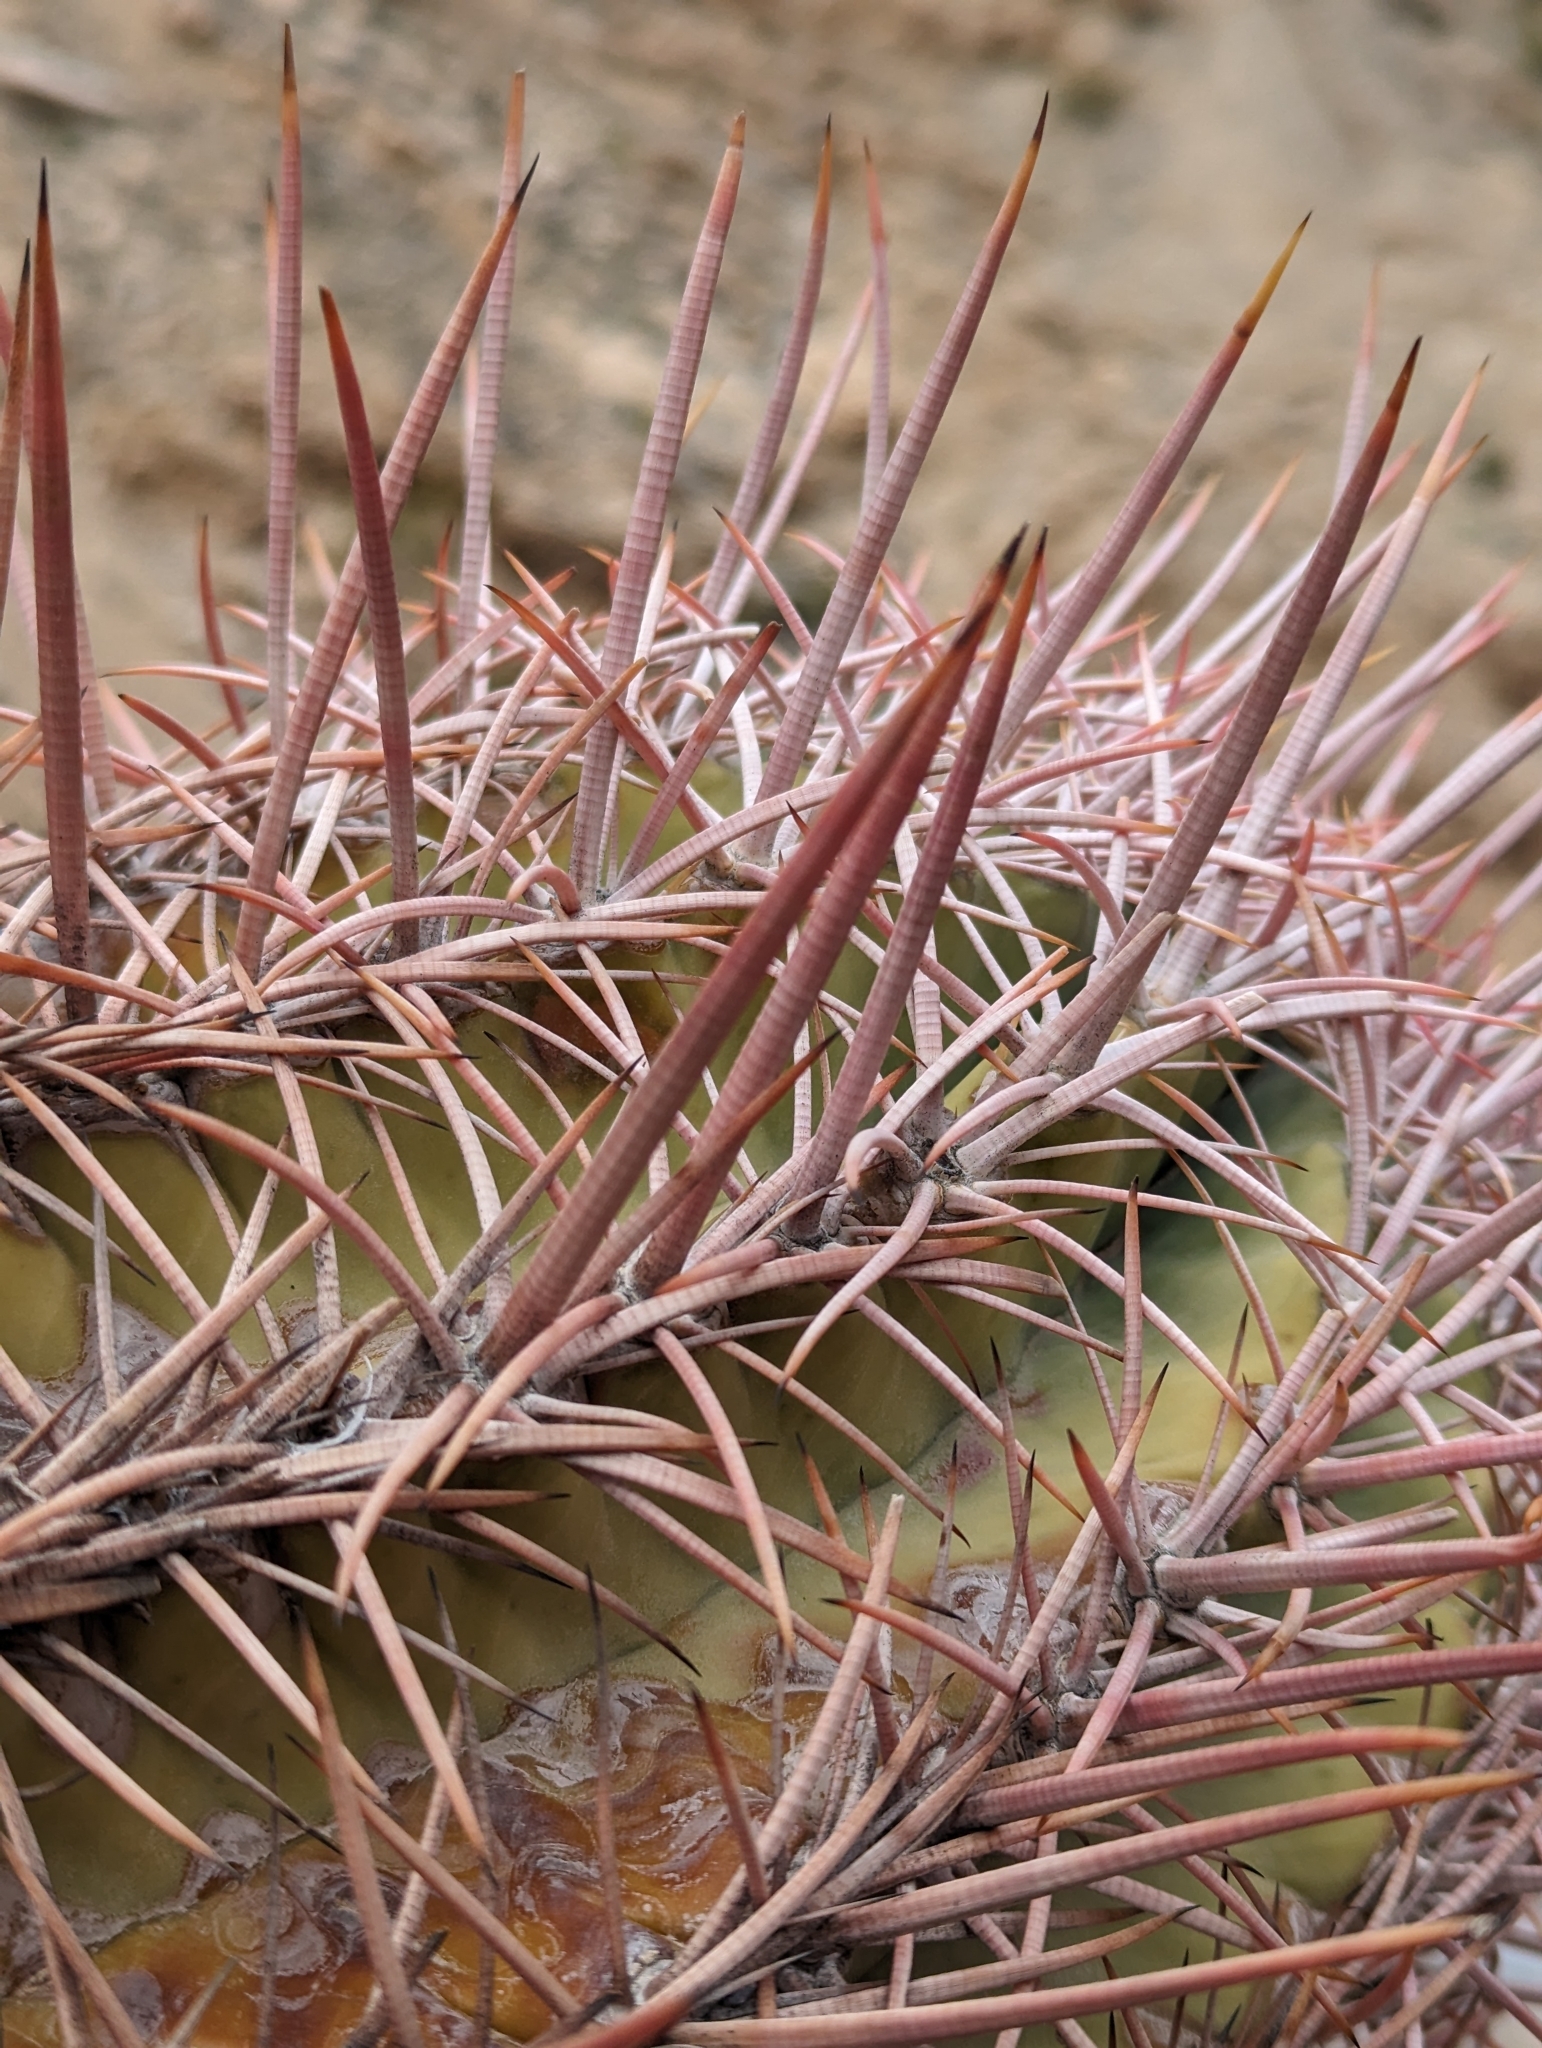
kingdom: Plantae
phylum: Tracheophyta
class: Magnoliopsida
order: Caryophyllales
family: Cactaceae
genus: Echinocactus
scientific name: Echinocactus polycephalus
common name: Cottontop cactus
